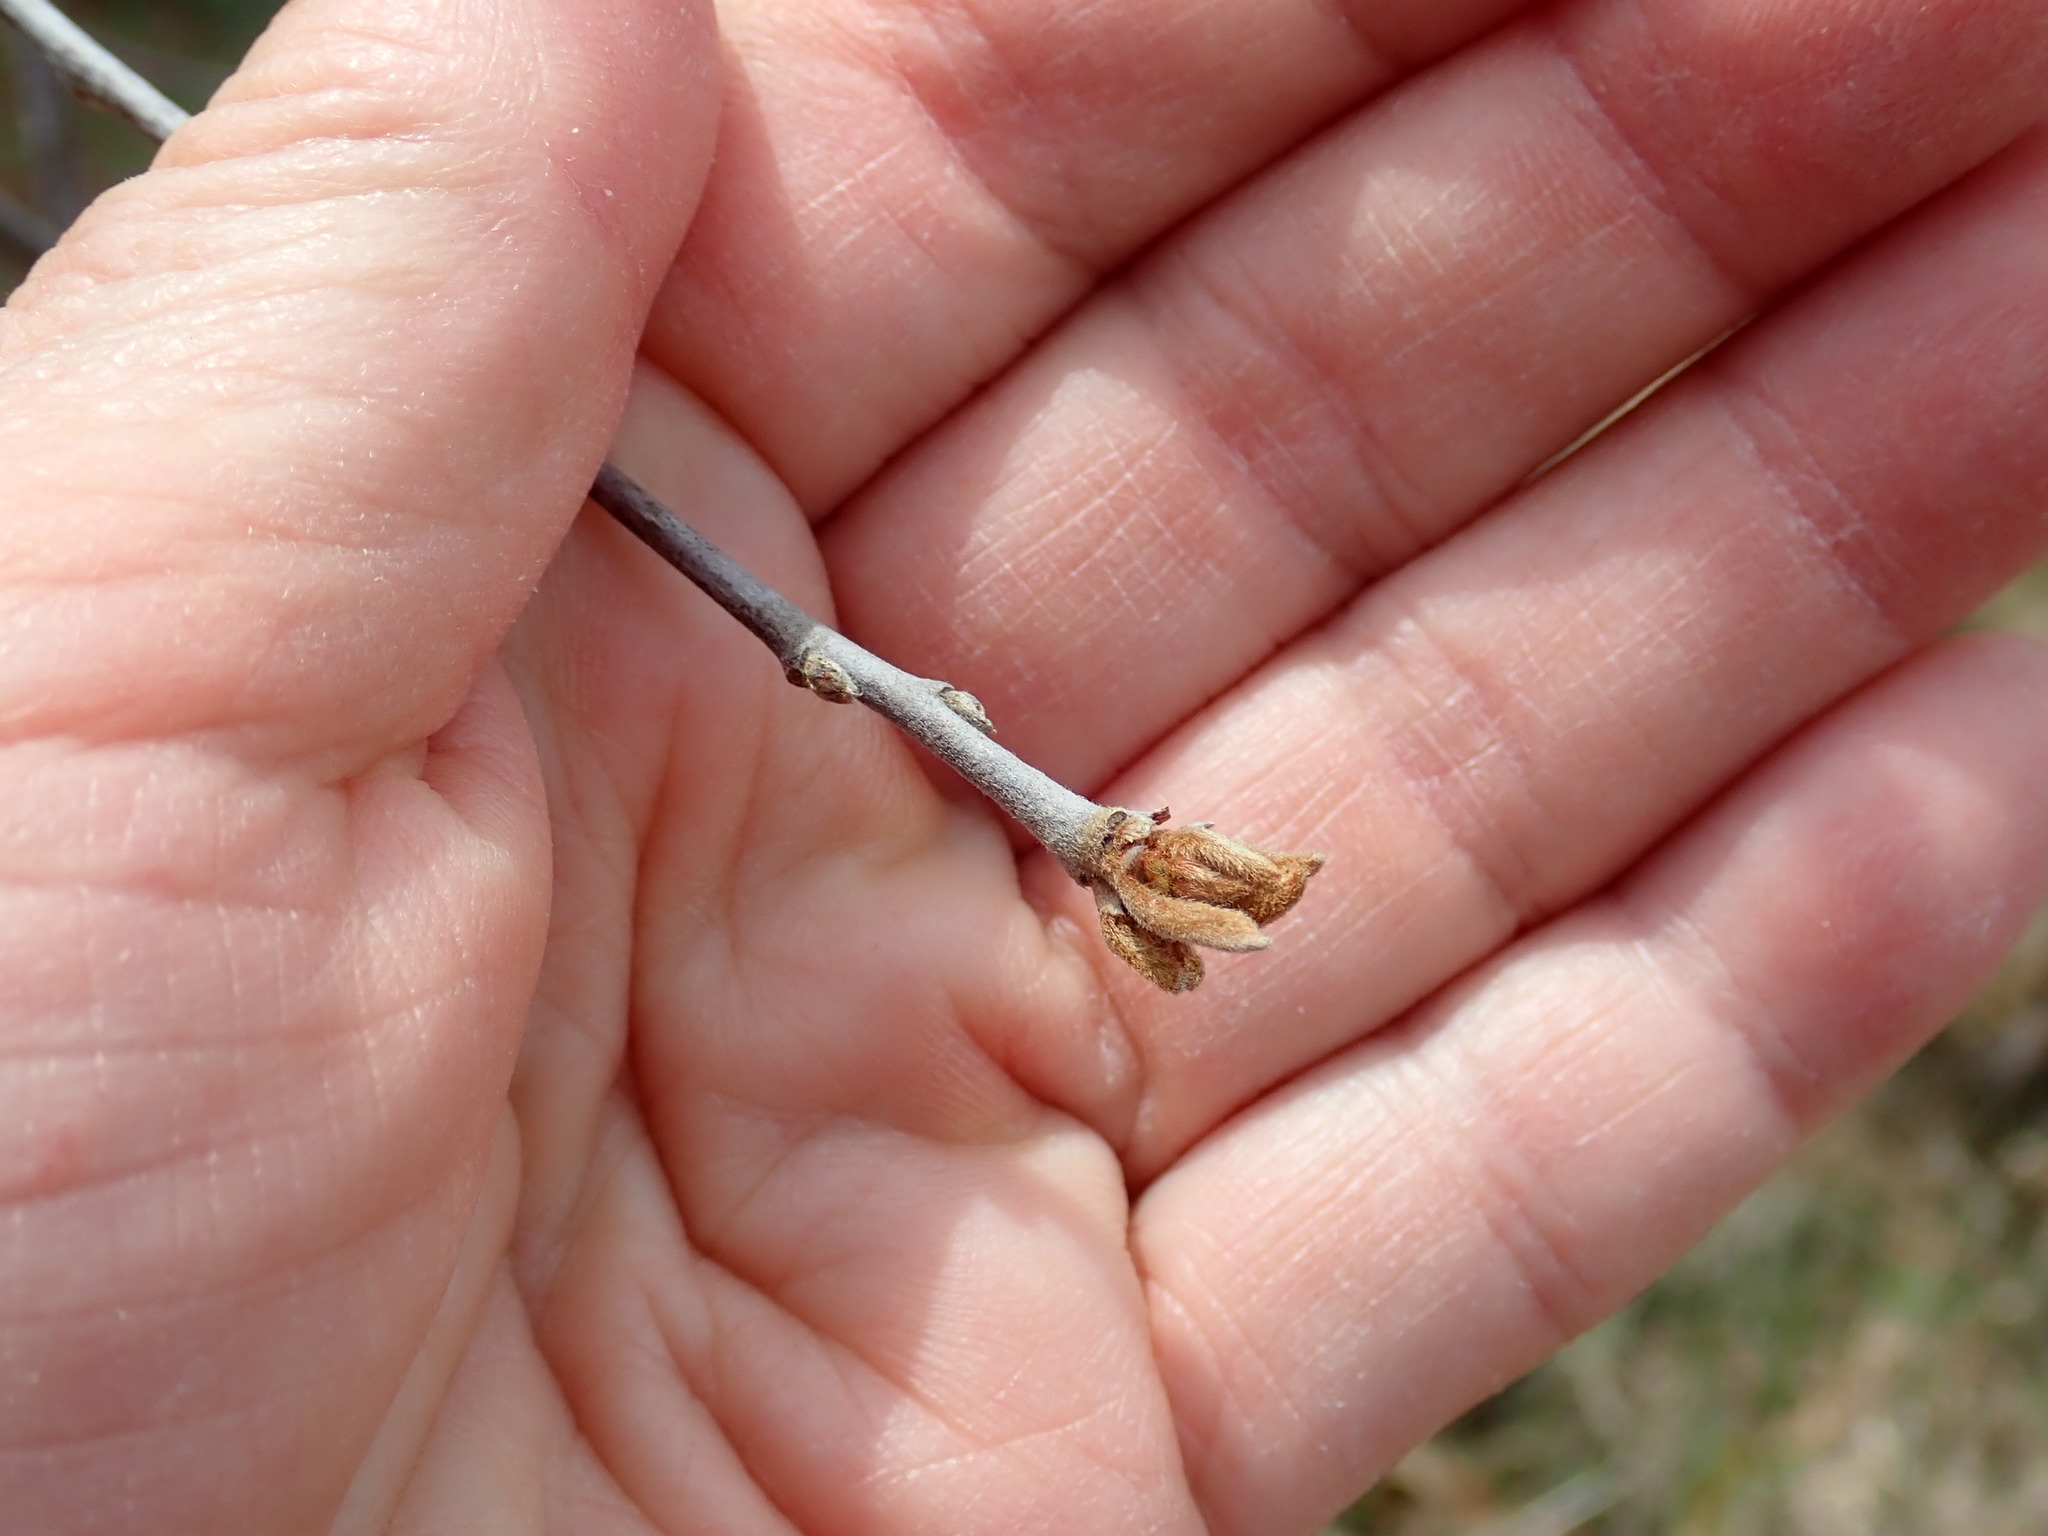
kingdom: Plantae
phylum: Tracheophyta
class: Magnoliopsida
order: Rosales
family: Rhamnaceae
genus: Frangula
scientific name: Frangula alnus
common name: Alder buckthorn
